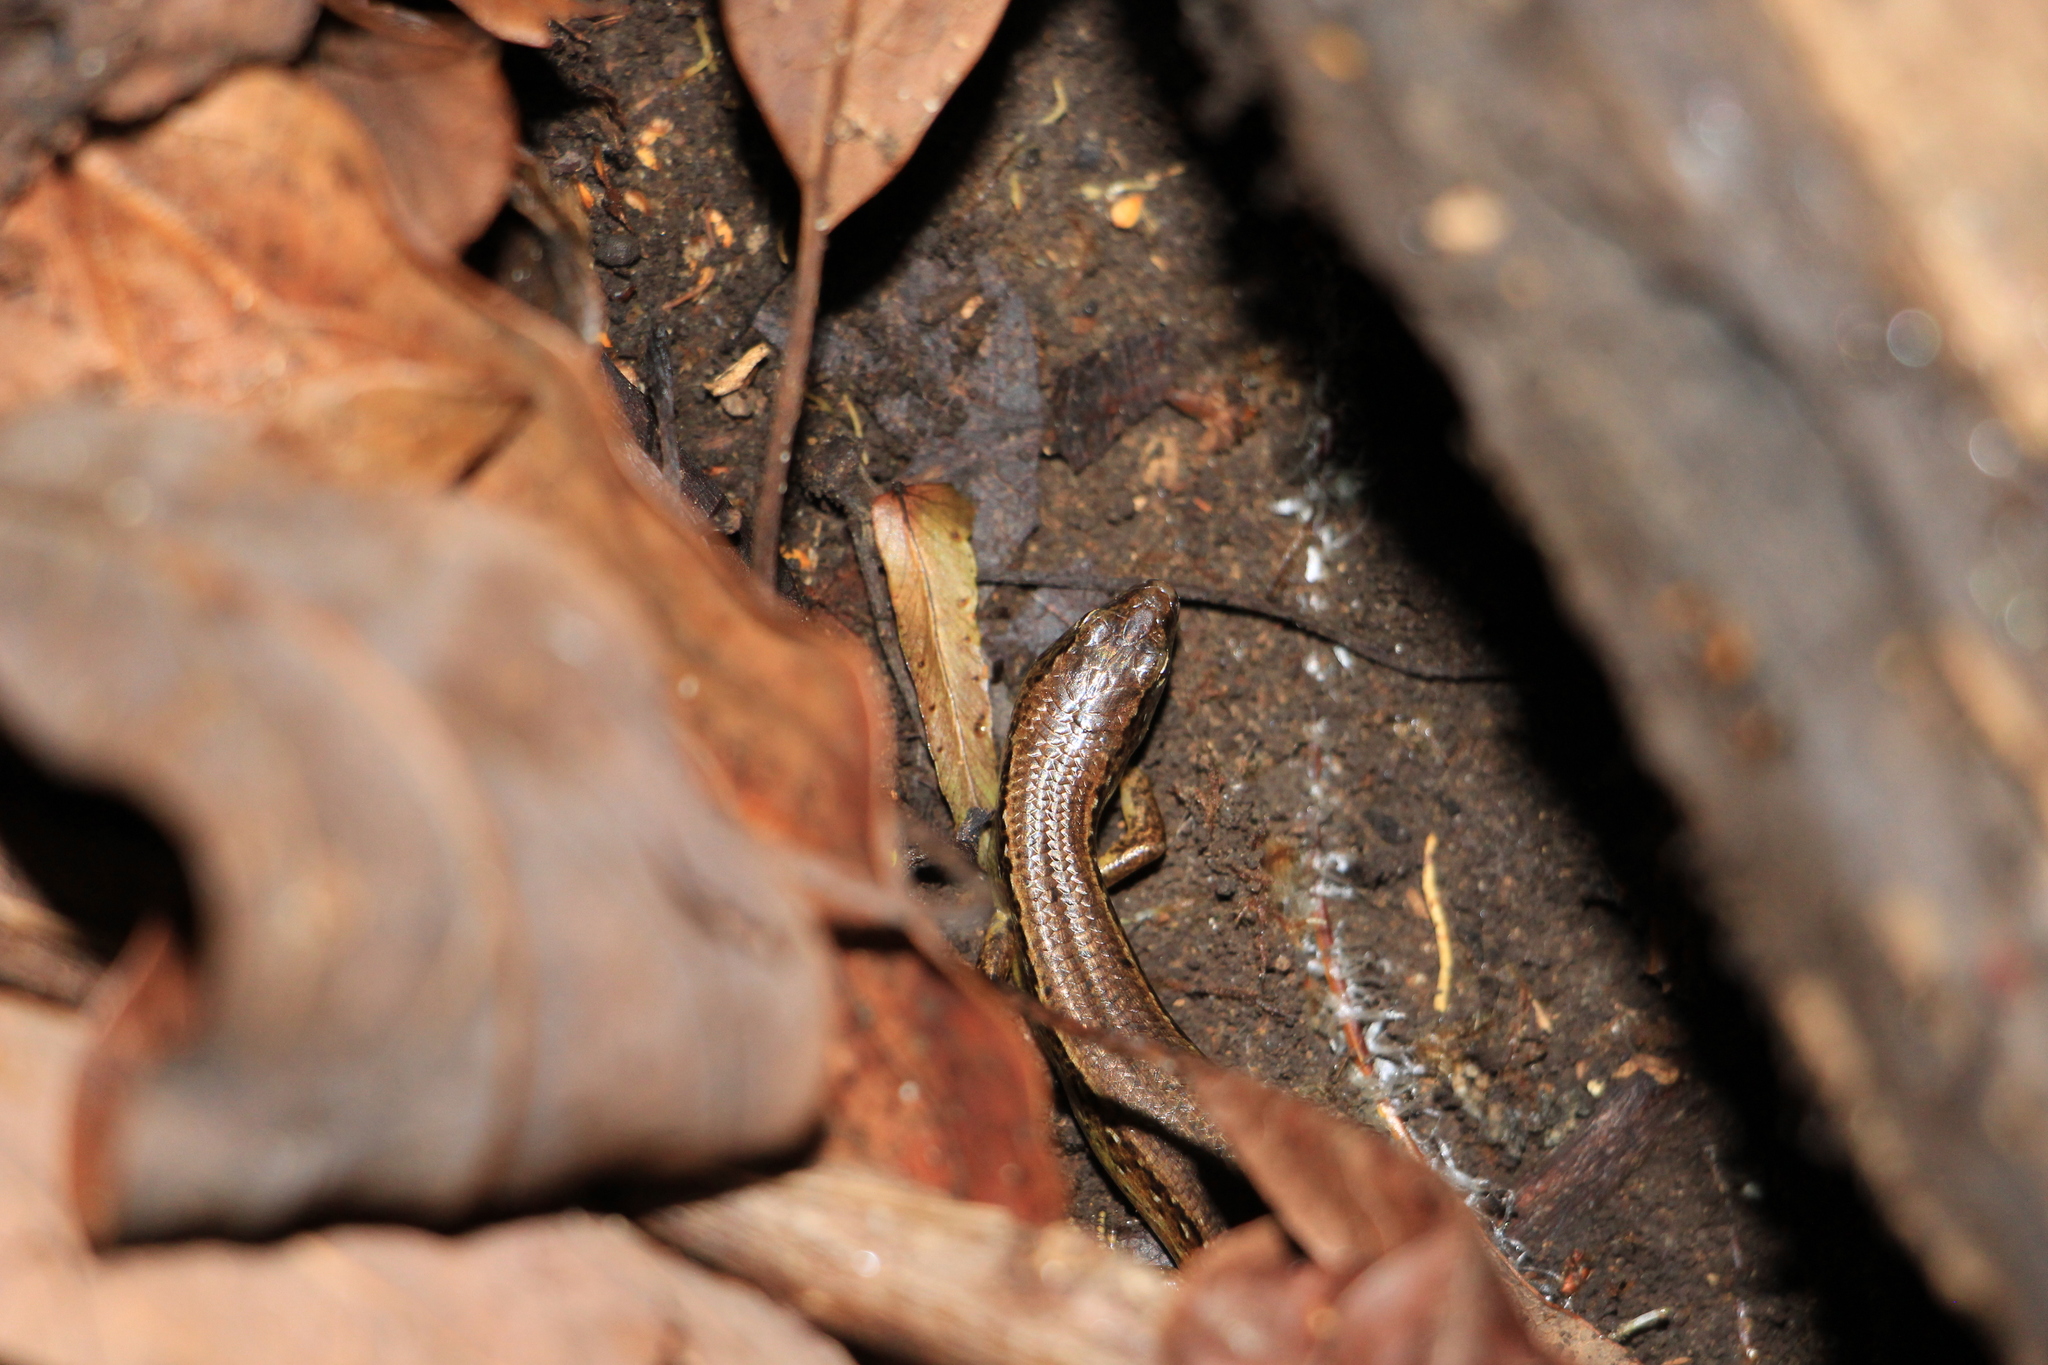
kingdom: Animalia
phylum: Chordata
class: Squamata
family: Scincidae
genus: Oligosoma
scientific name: Oligosoma aeneum
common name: Copper skink
